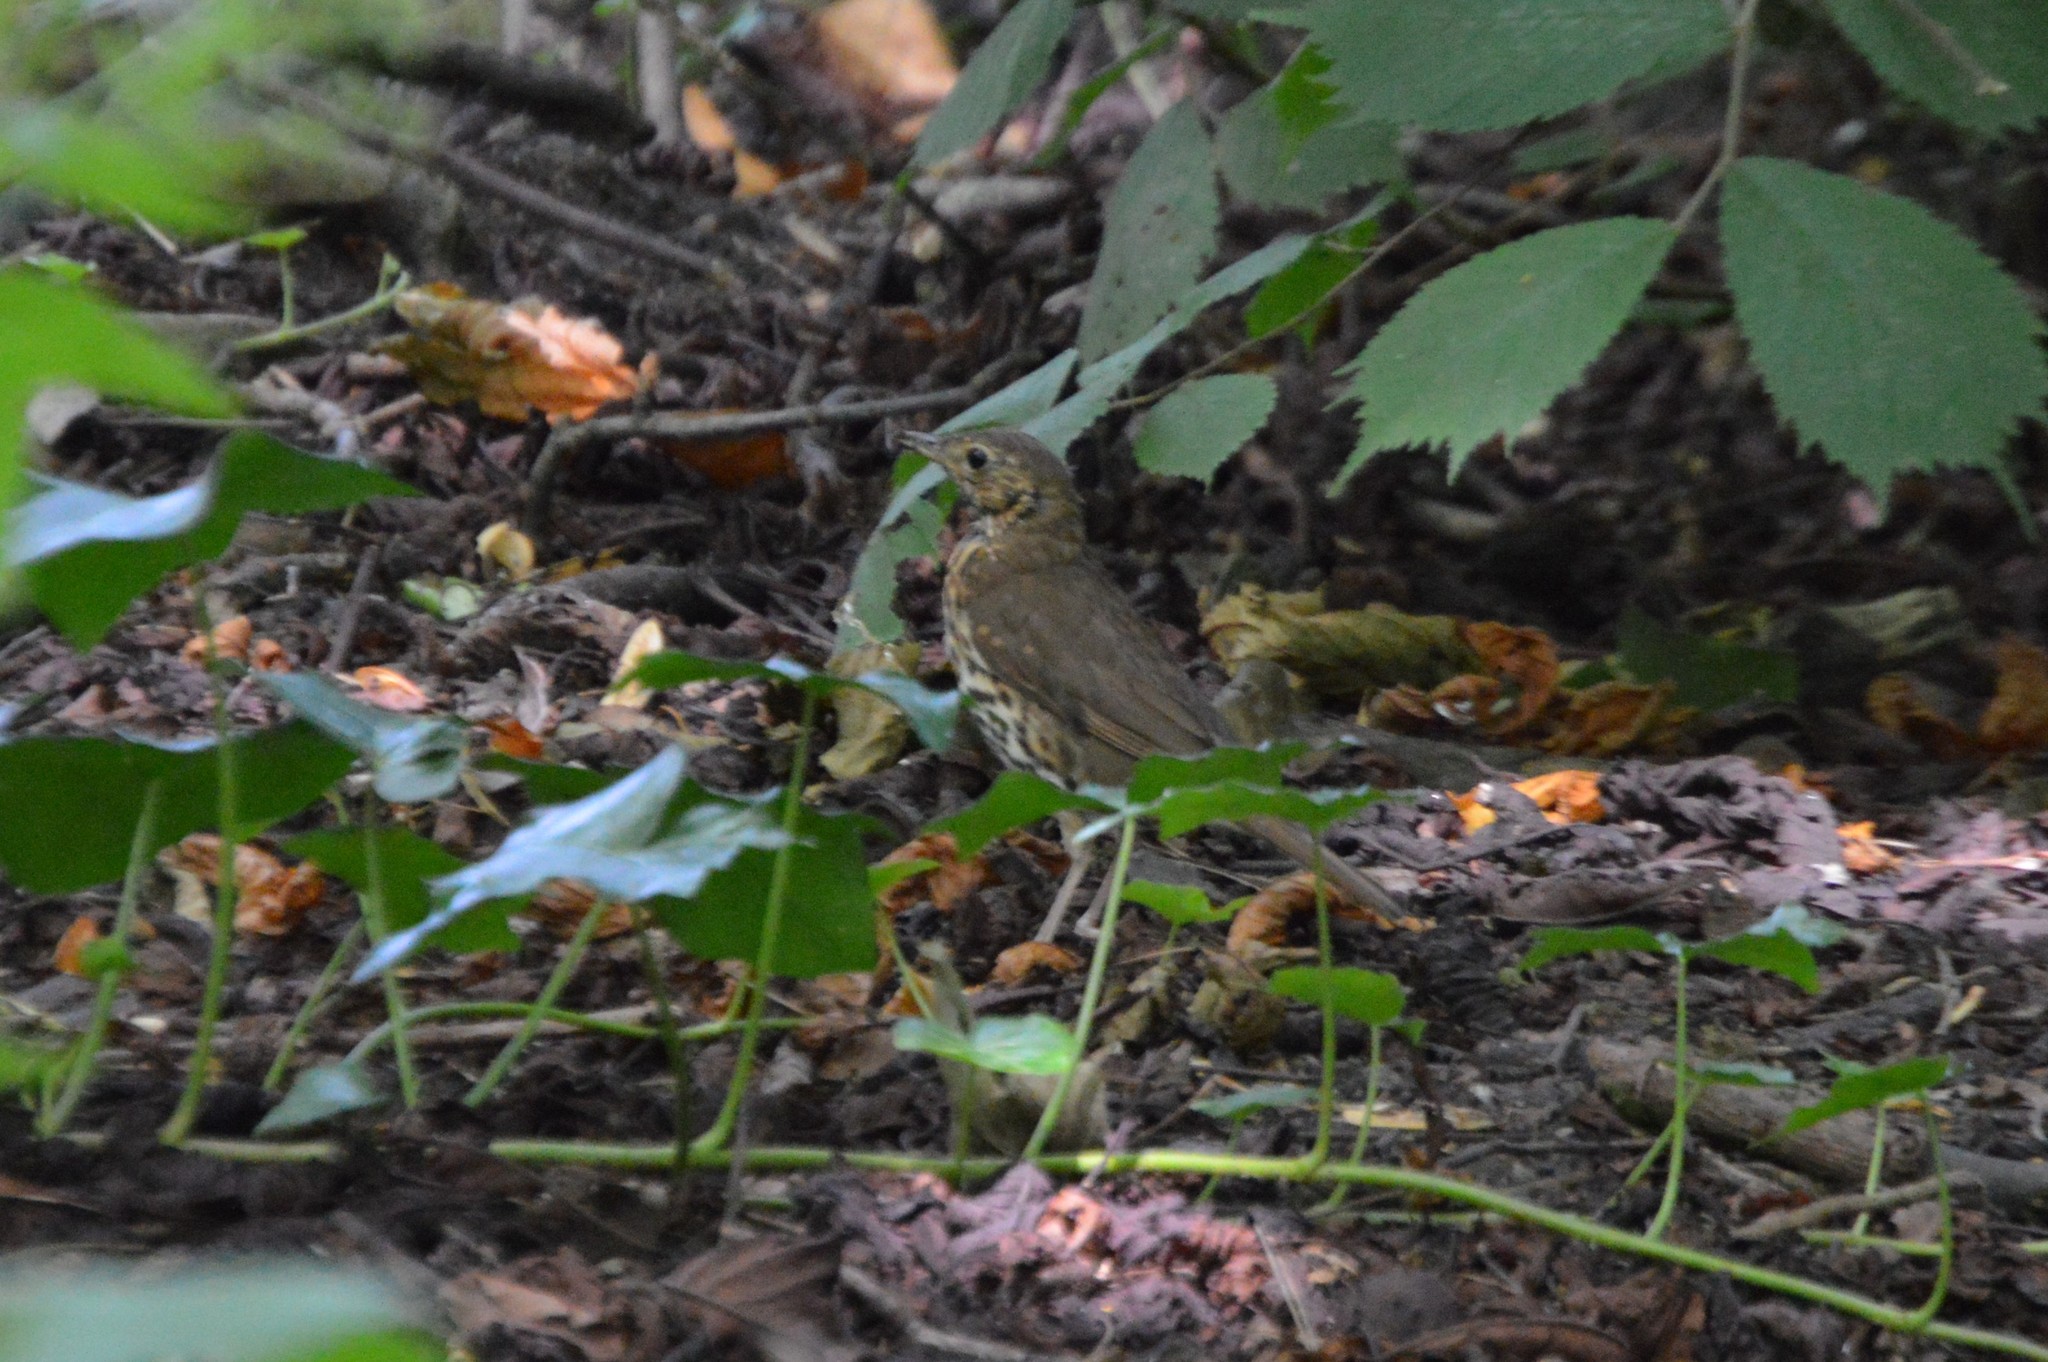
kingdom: Animalia
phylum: Chordata
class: Aves
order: Passeriformes
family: Turdidae
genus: Turdus
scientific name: Turdus philomelos
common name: Song thrush
